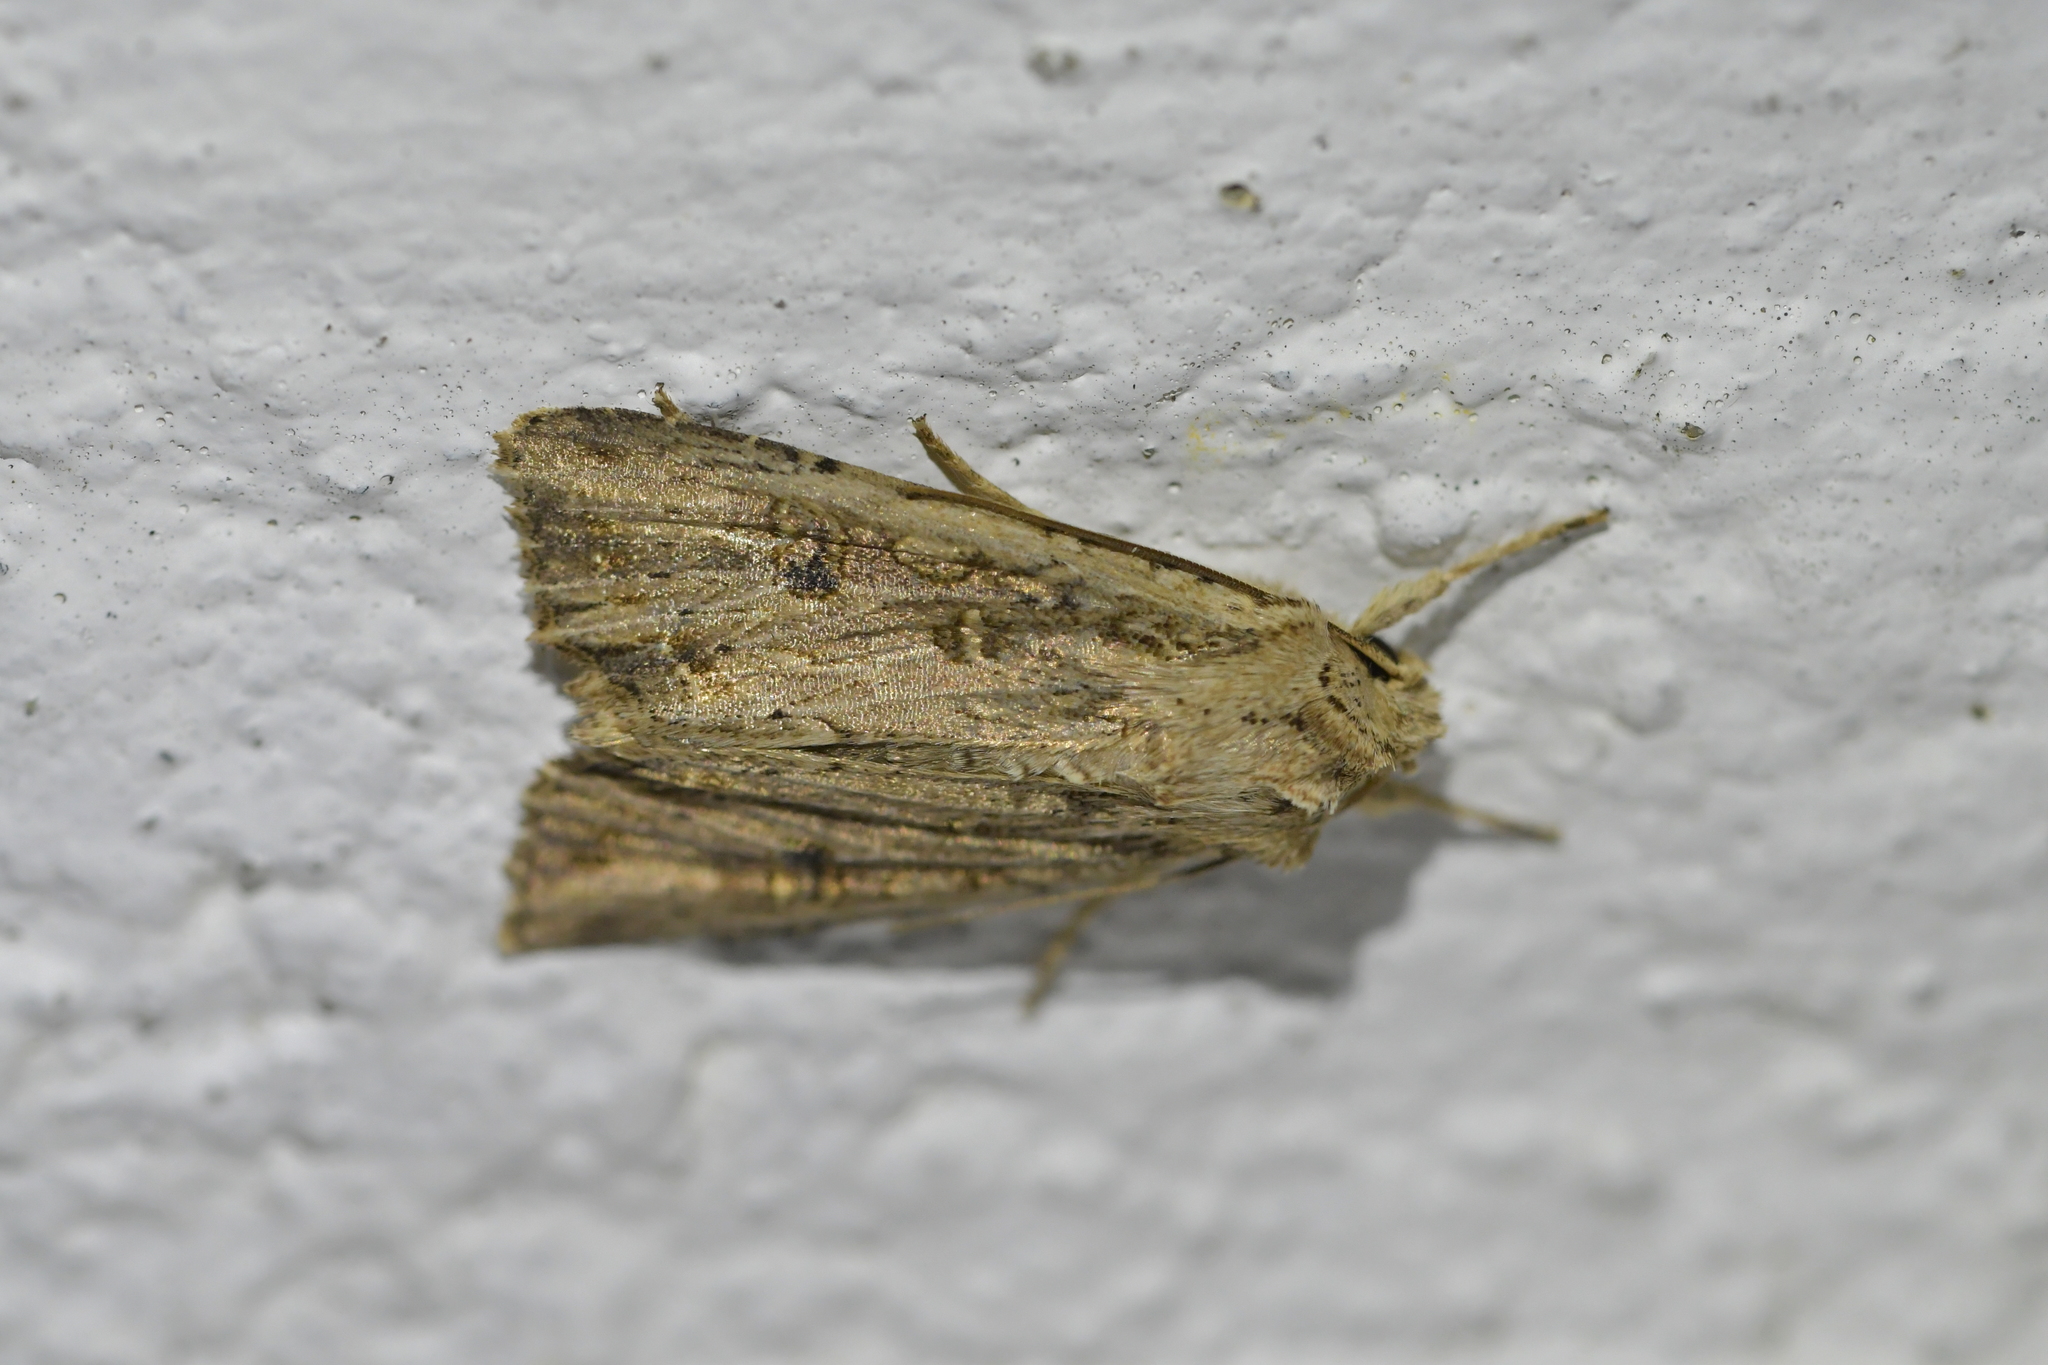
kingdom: Animalia
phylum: Arthropoda
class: Insecta
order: Lepidoptera
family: Noctuidae
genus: Ichneutica
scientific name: Ichneutica lignana
